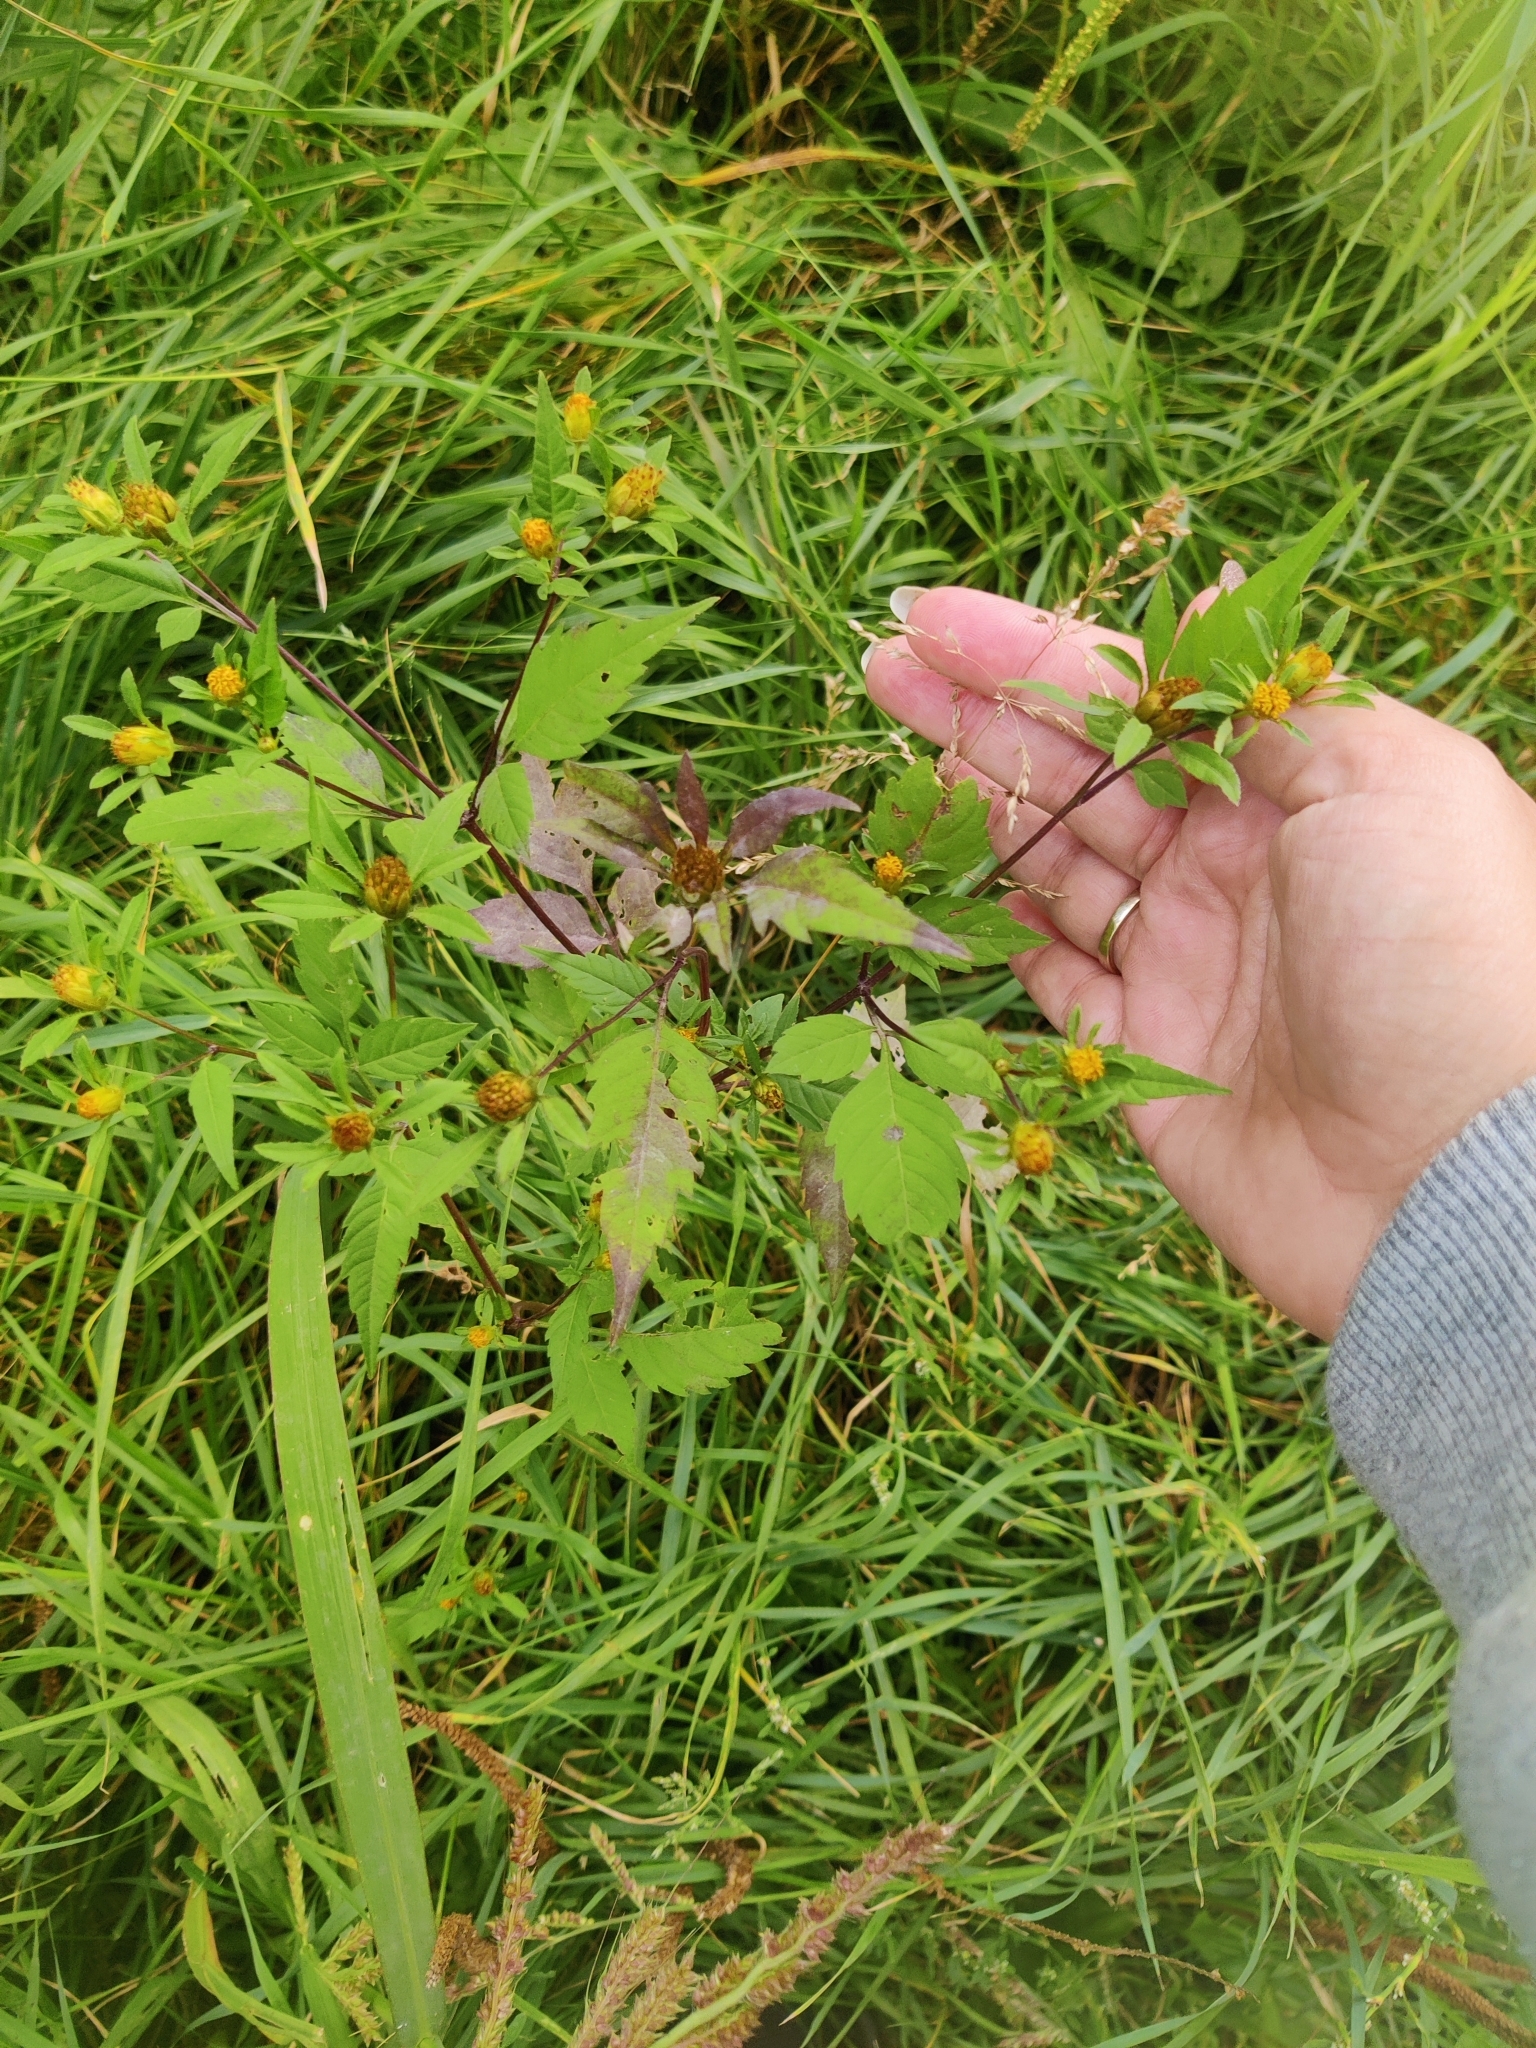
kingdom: Plantae
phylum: Tracheophyta
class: Magnoliopsida
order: Asterales
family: Asteraceae
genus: Bidens
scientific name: Bidens frondosa
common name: Beggarticks
